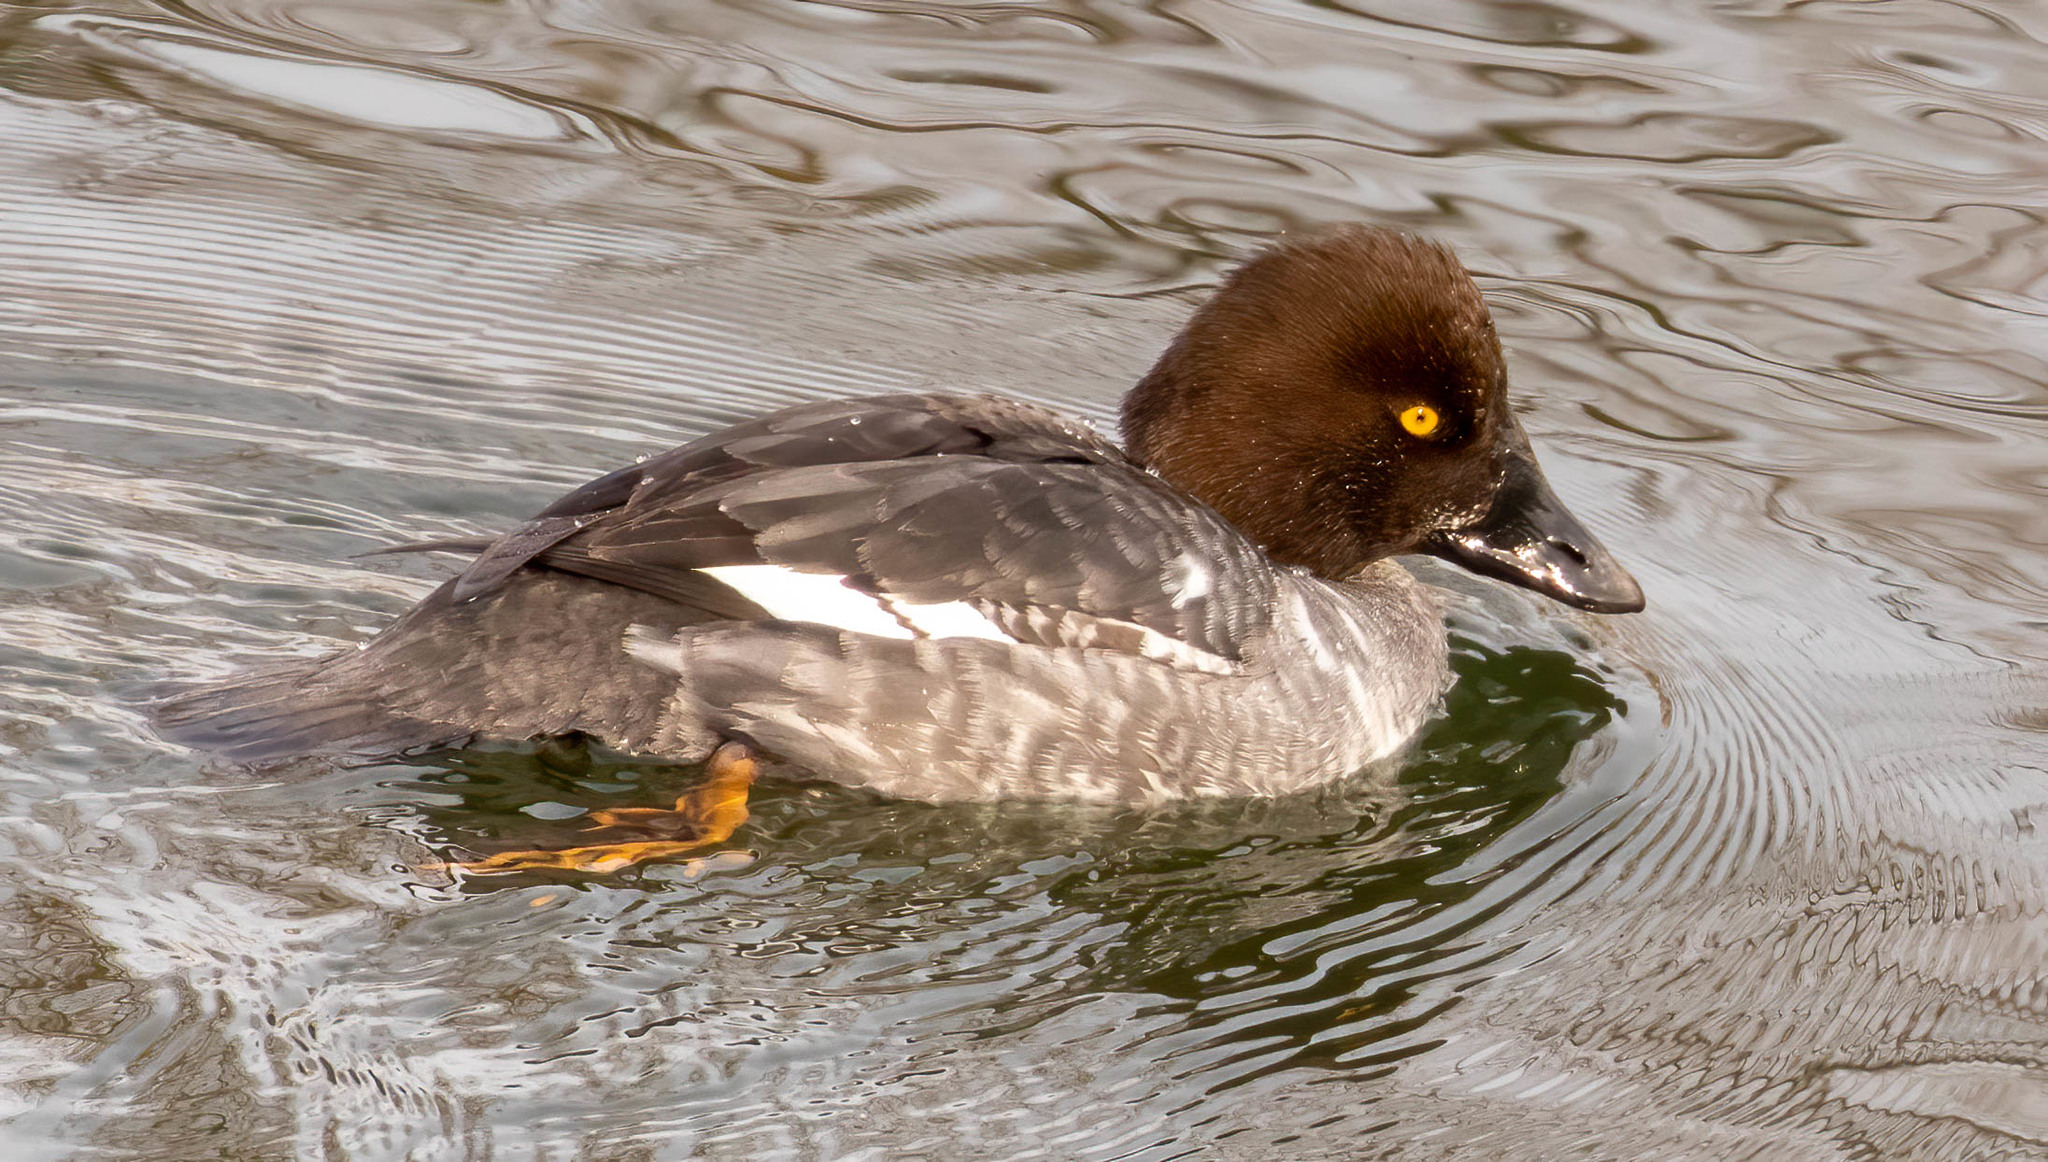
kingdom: Animalia
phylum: Chordata
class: Aves
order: Anseriformes
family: Anatidae
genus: Bucephala
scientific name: Bucephala clangula
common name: Common goldeneye
